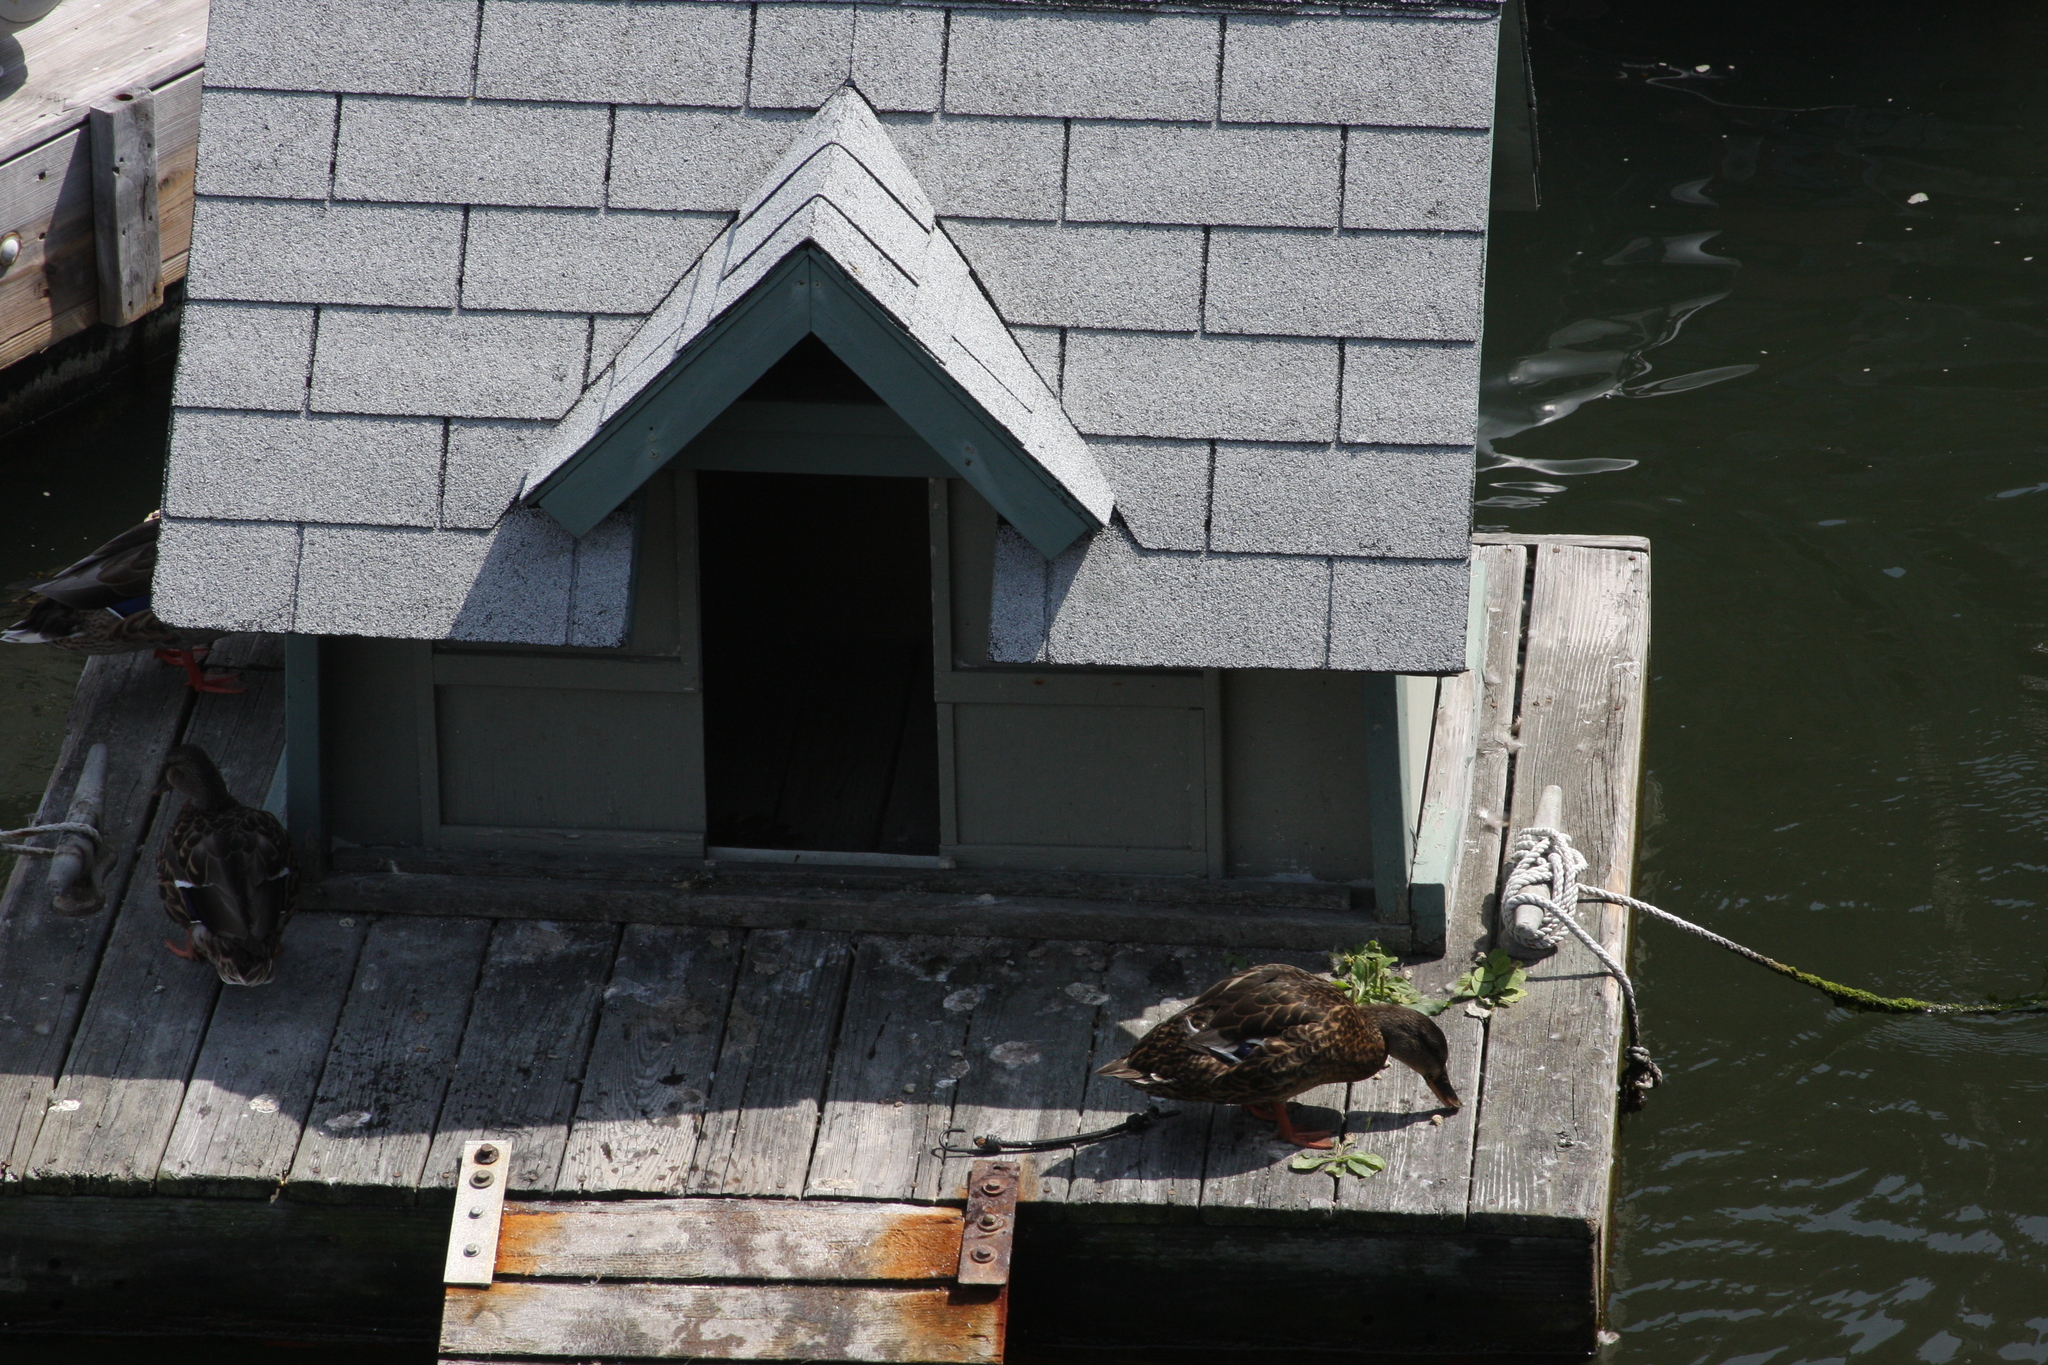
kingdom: Animalia
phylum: Chordata
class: Aves
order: Anseriformes
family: Anatidae
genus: Anas
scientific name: Anas platyrhynchos
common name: Mallard
